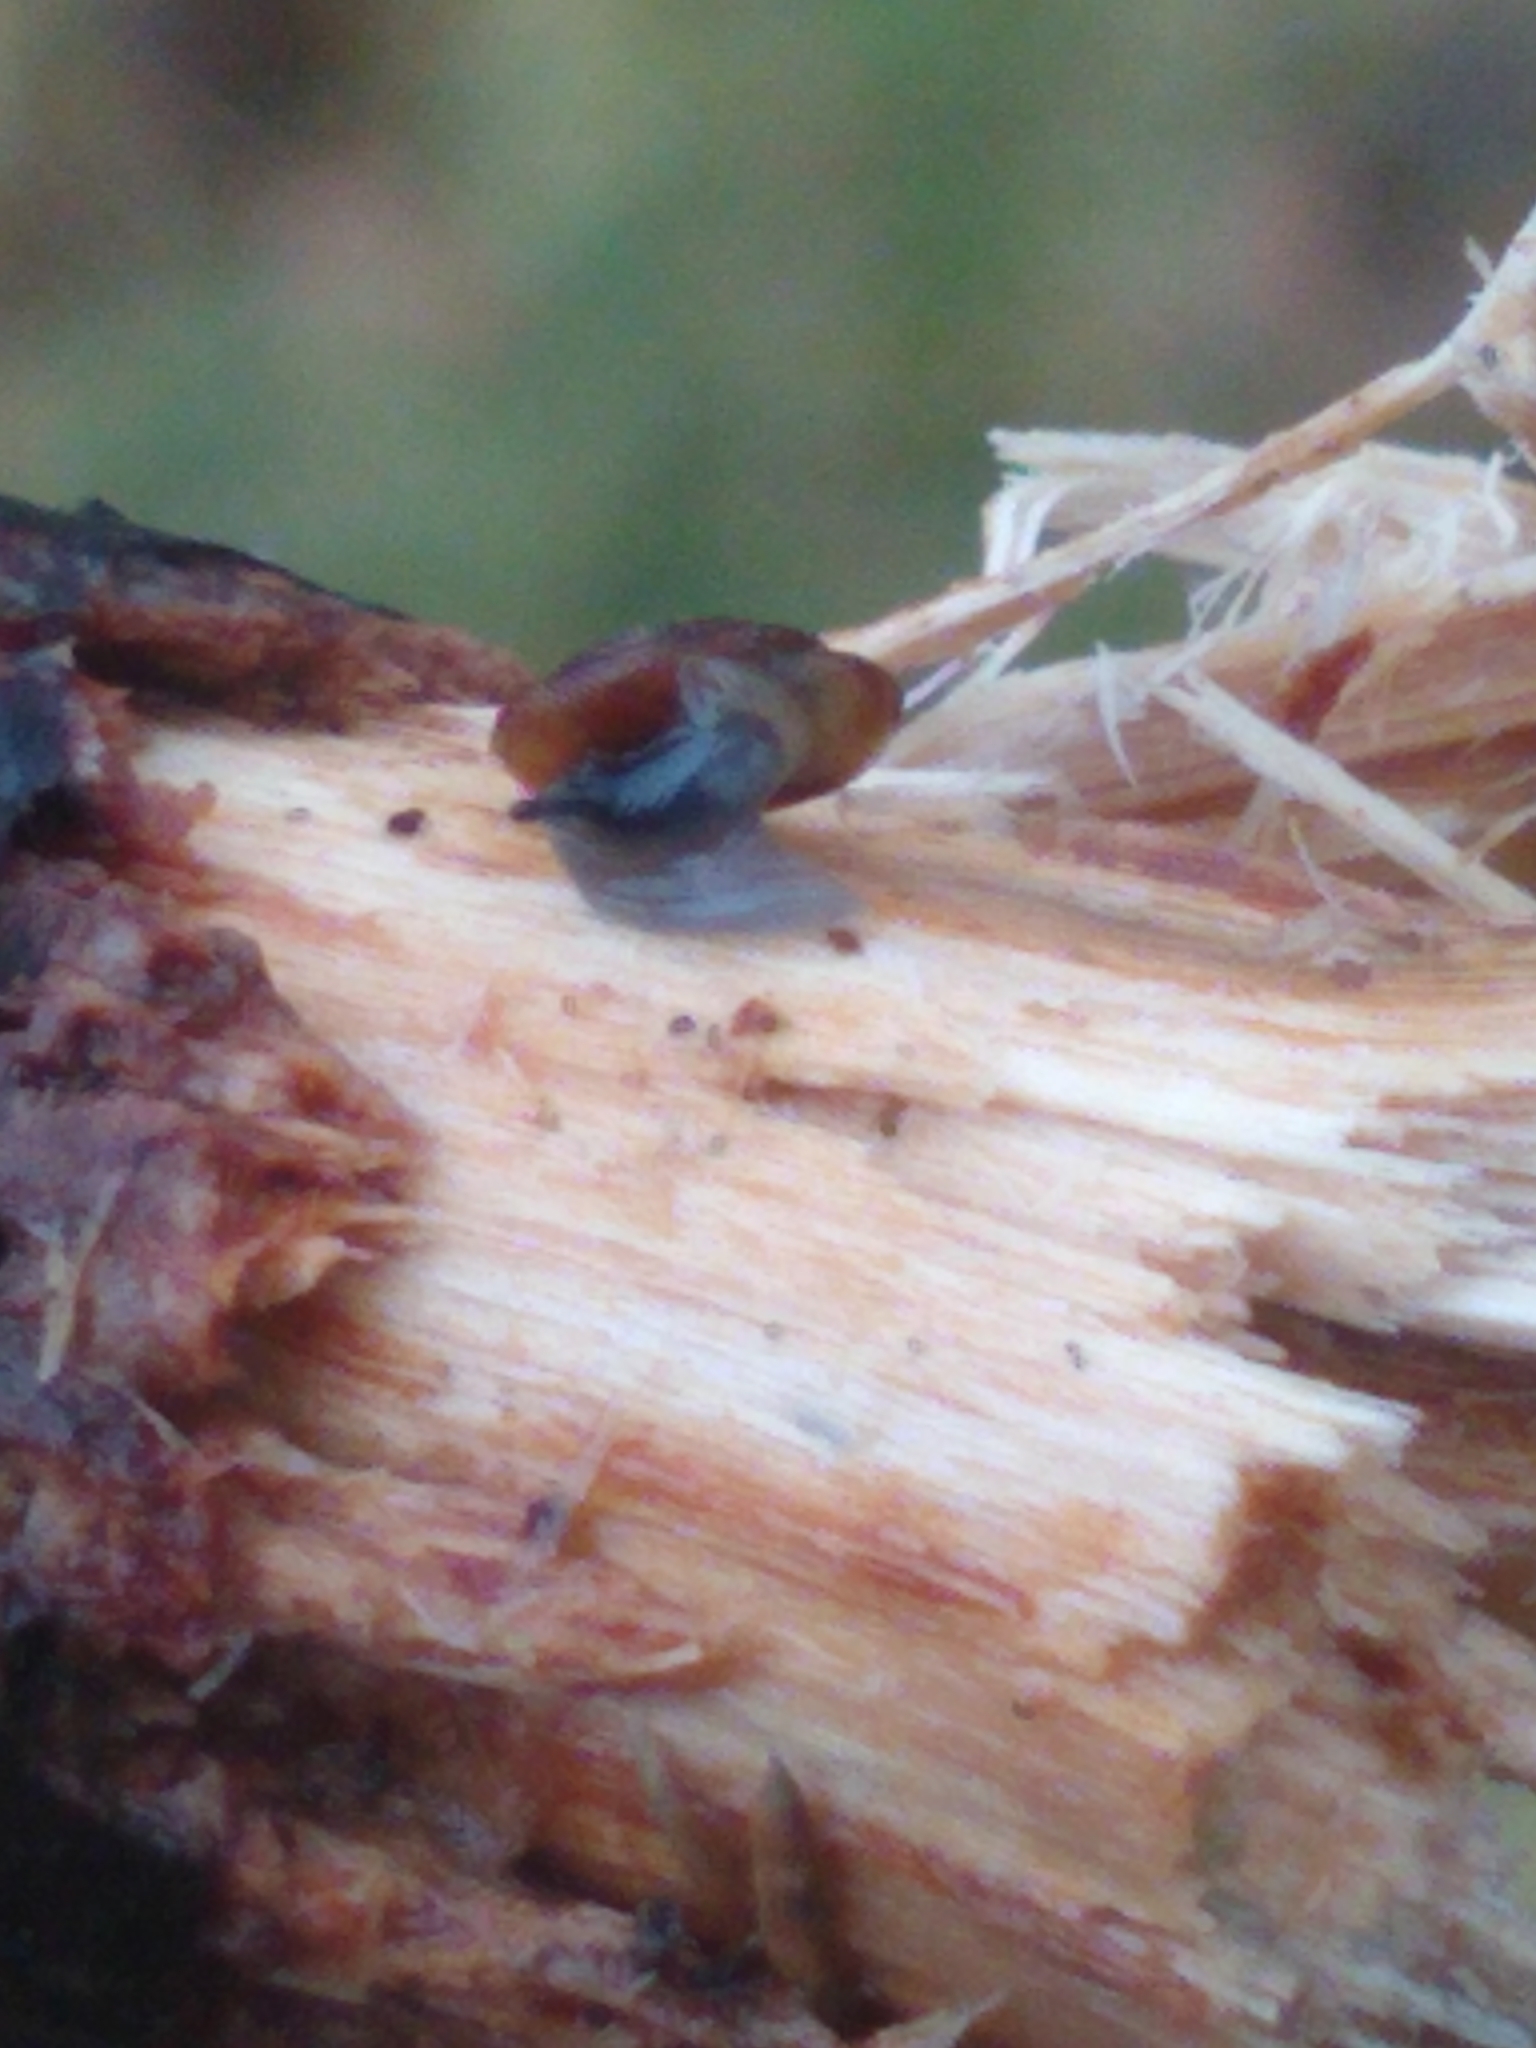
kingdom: Animalia
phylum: Mollusca
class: Gastropoda
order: Stylommatophora
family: Discidae
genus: Discus
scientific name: Discus rotundatus
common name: Rounded snail
